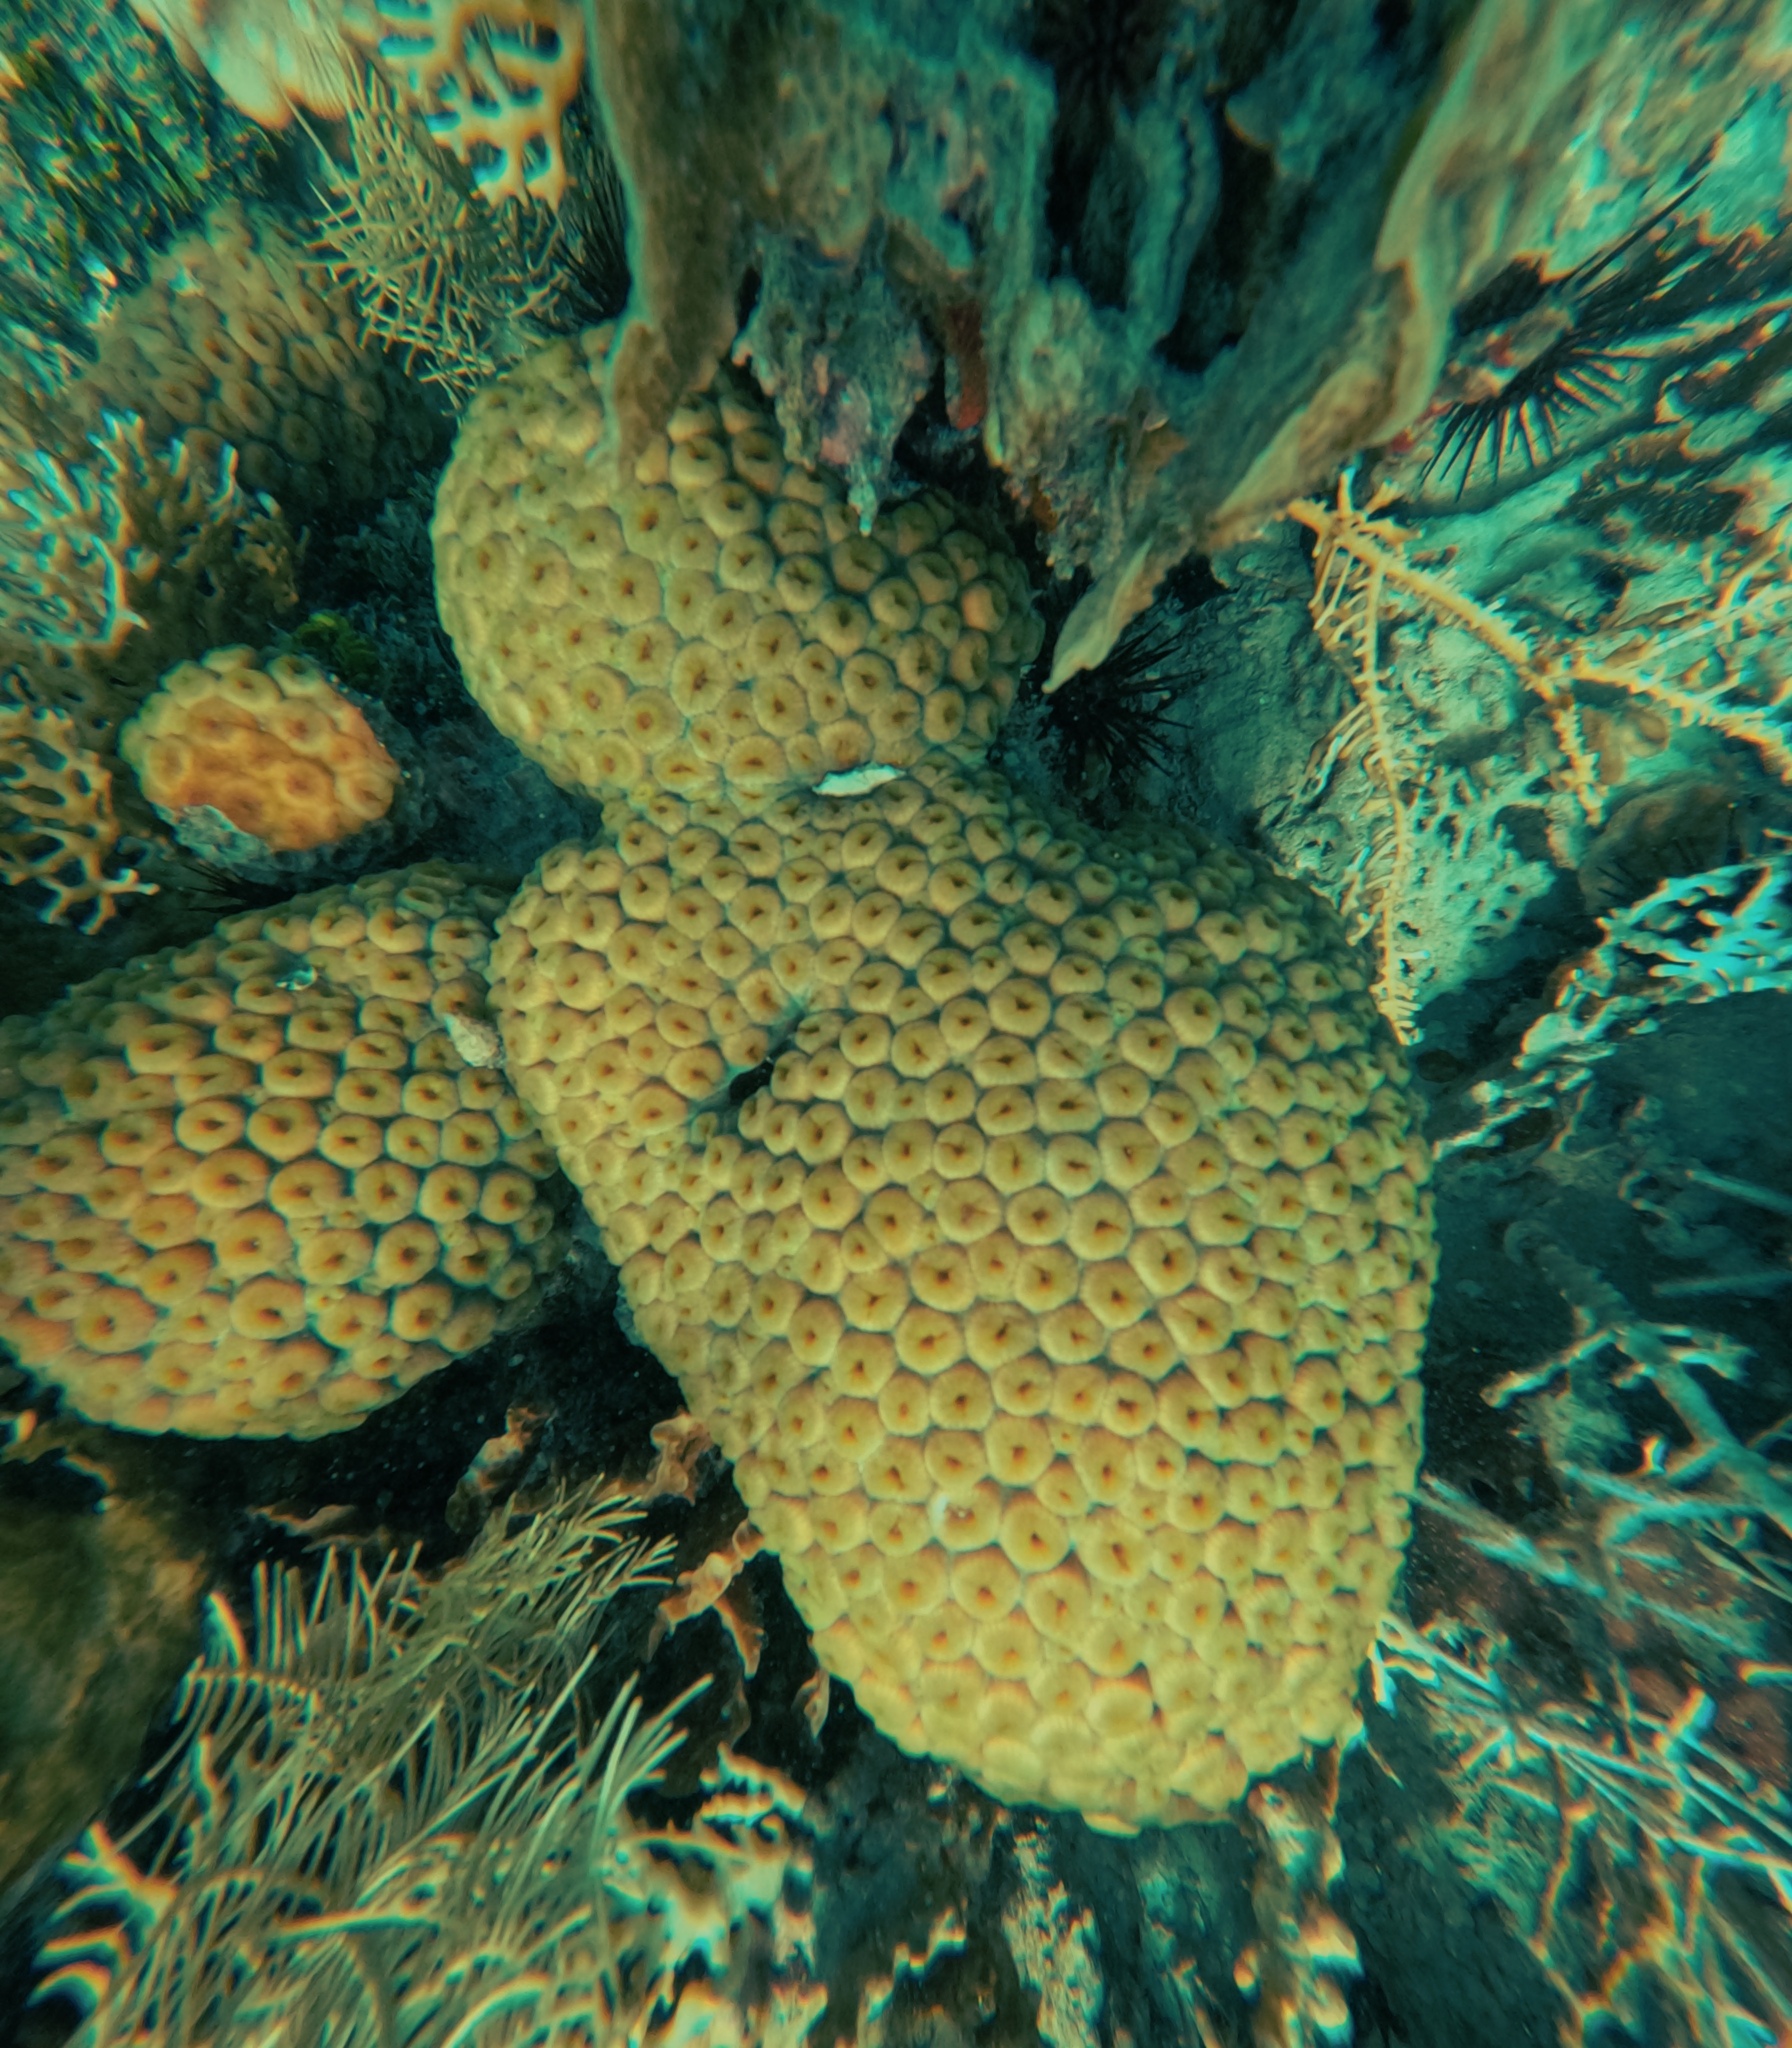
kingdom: Animalia
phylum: Cnidaria
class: Anthozoa
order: Scleractinia
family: Montastraeidae
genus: Montastraea
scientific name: Montastraea cavernosa
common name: Great star coral
